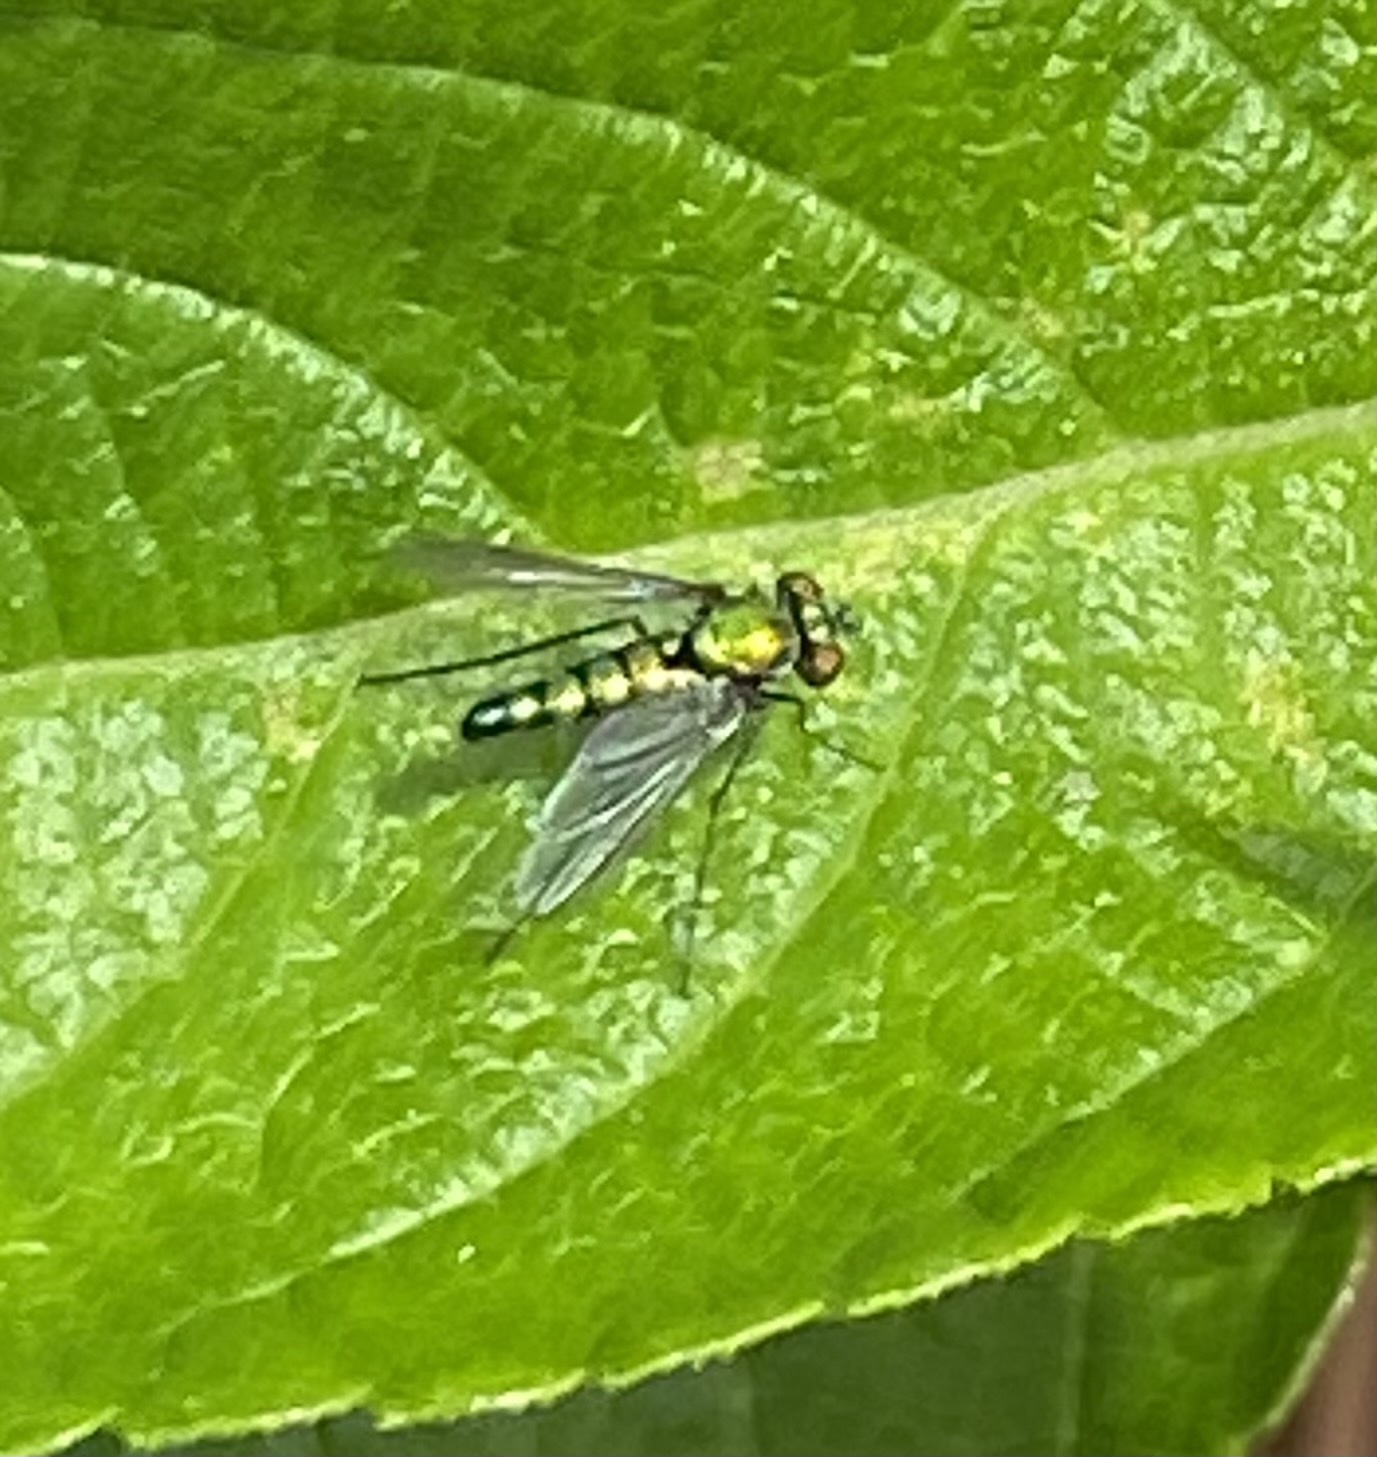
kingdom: Animalia
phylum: Arthropoda
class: Insecta
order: Diptera
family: Dolichopodidae
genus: Condylostylus
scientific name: Condylostylus longicornis
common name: Long-legged fly
